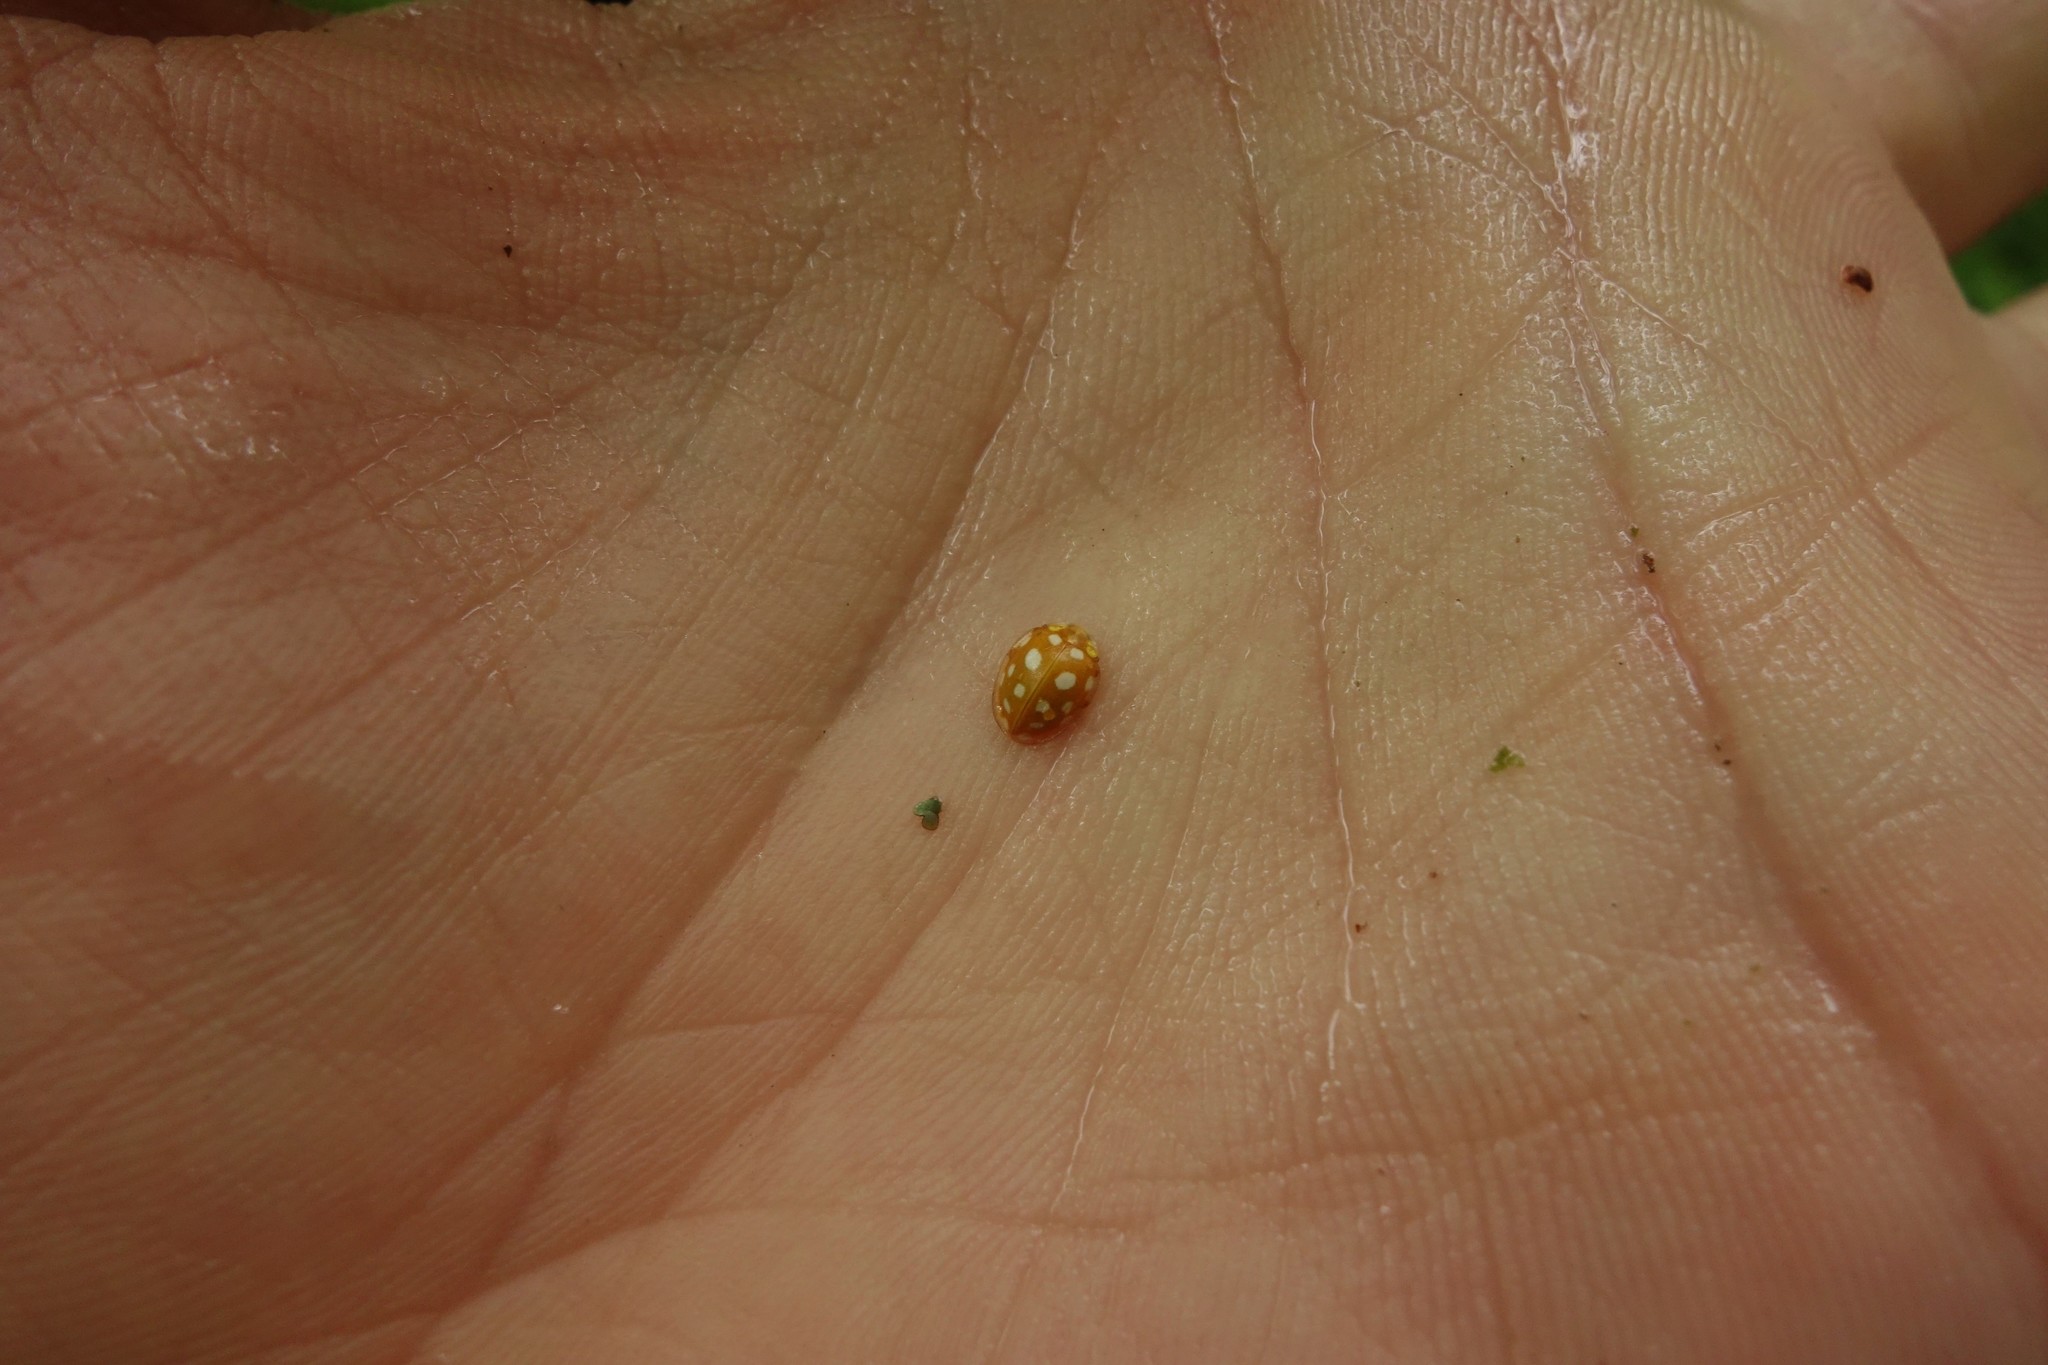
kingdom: Animalia
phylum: Arthropoda
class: Insecta
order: Coleoptera
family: Coccinellidae
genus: Halyzia
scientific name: Halyzia sedecimguttata
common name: Orange ladybird
